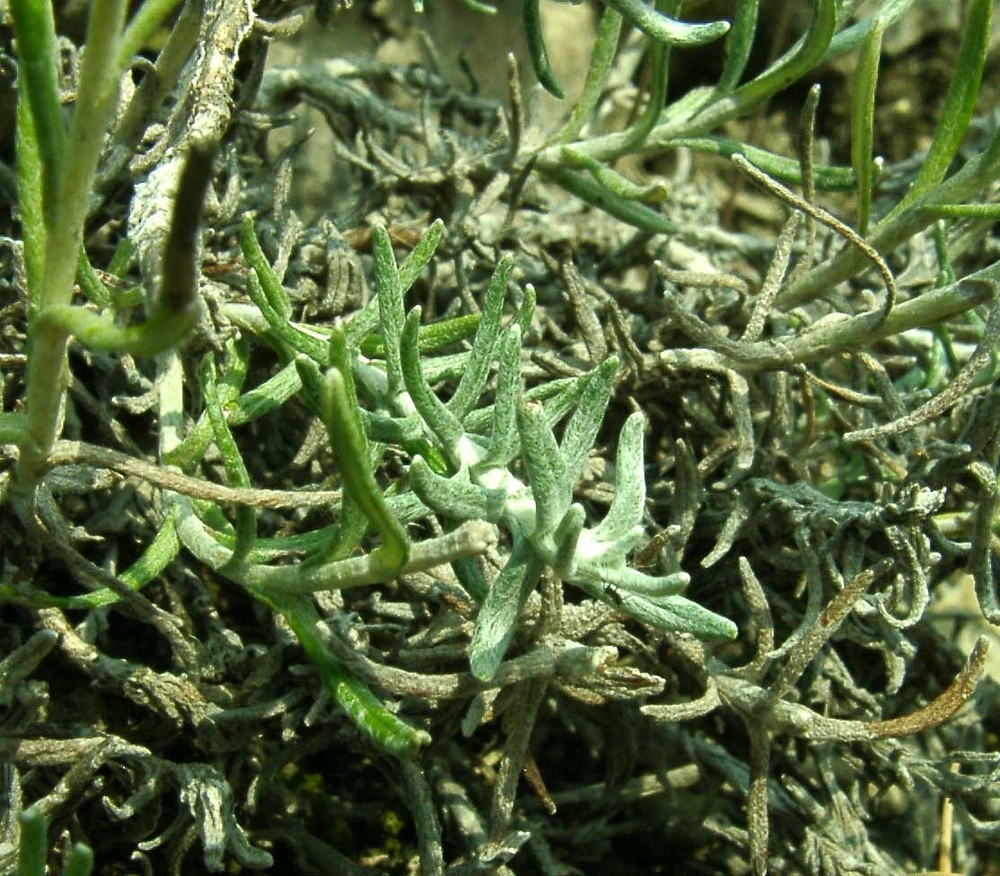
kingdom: Plantae
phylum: Tracheophyta
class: Magnoliopsida
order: Asterales
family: Asteraceae
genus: Helichrysum
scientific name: Helichrysum stoechas
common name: Goldilocks
